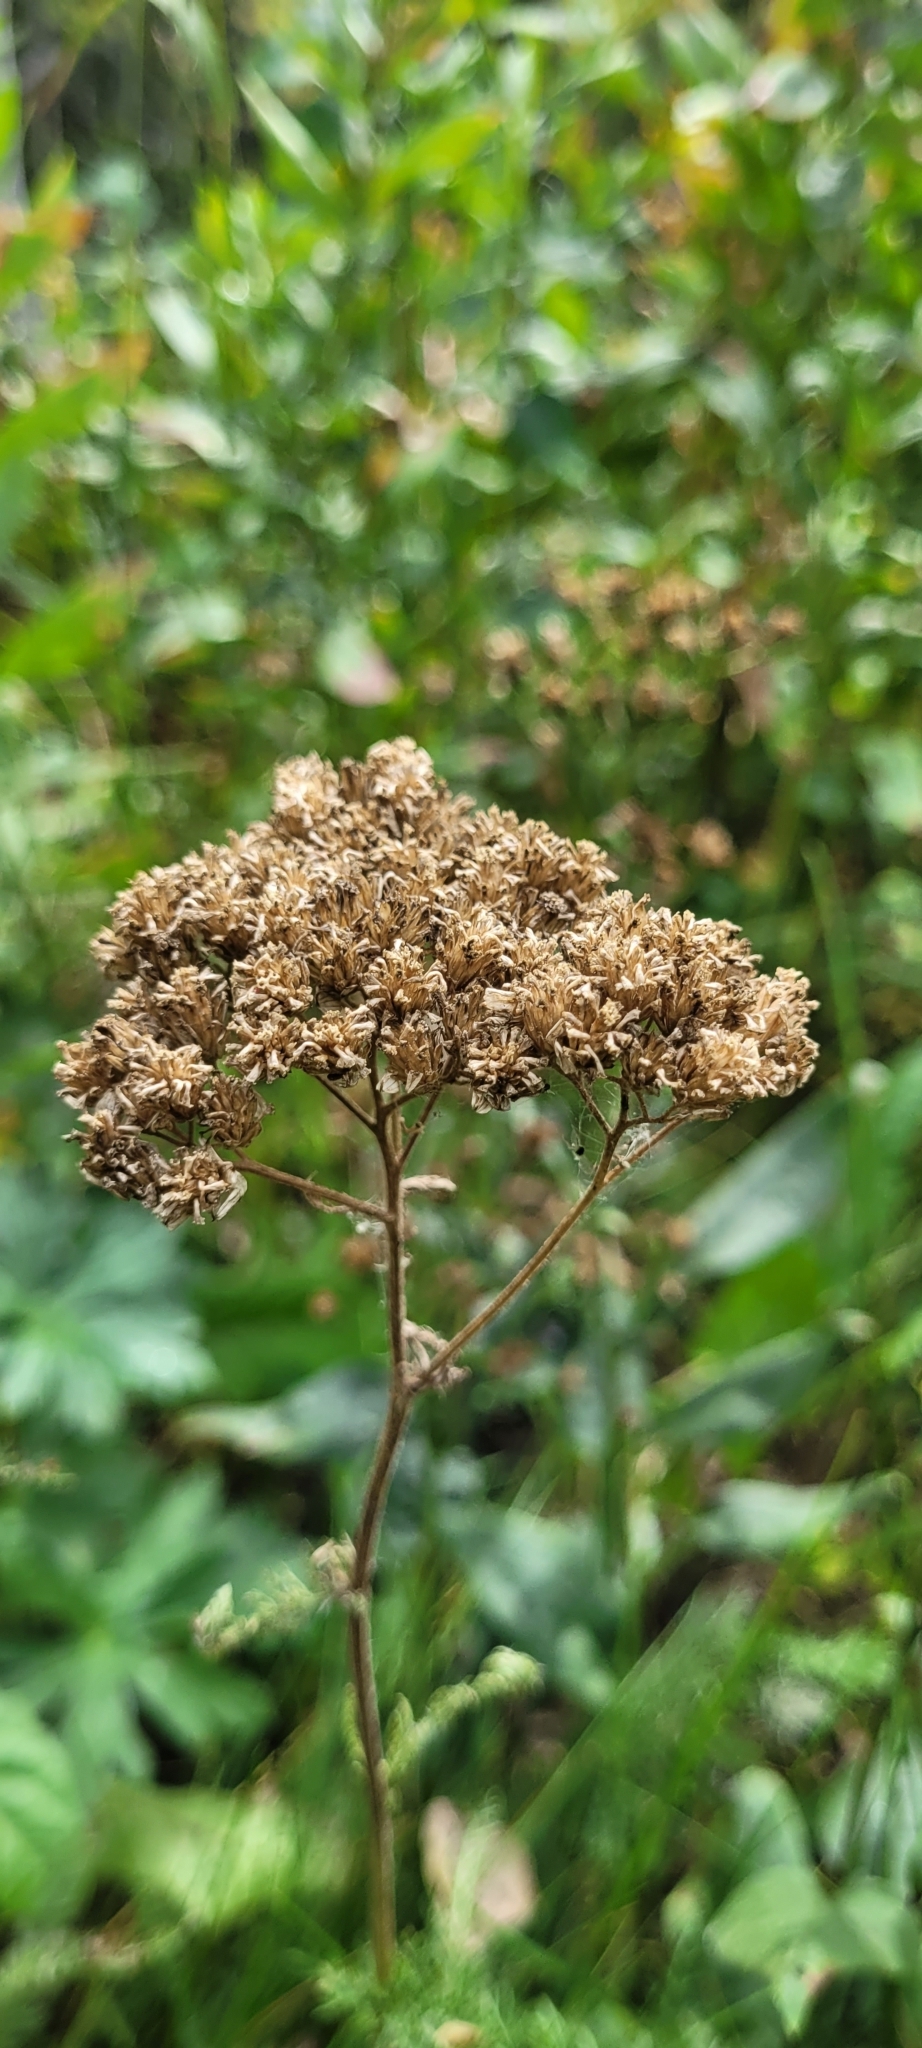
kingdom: Plantae
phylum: Tracheophyta
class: Magnoliopsida
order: Asterales
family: Asteraceae
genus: Achillea
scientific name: Achillea millefolium
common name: Yarrow
